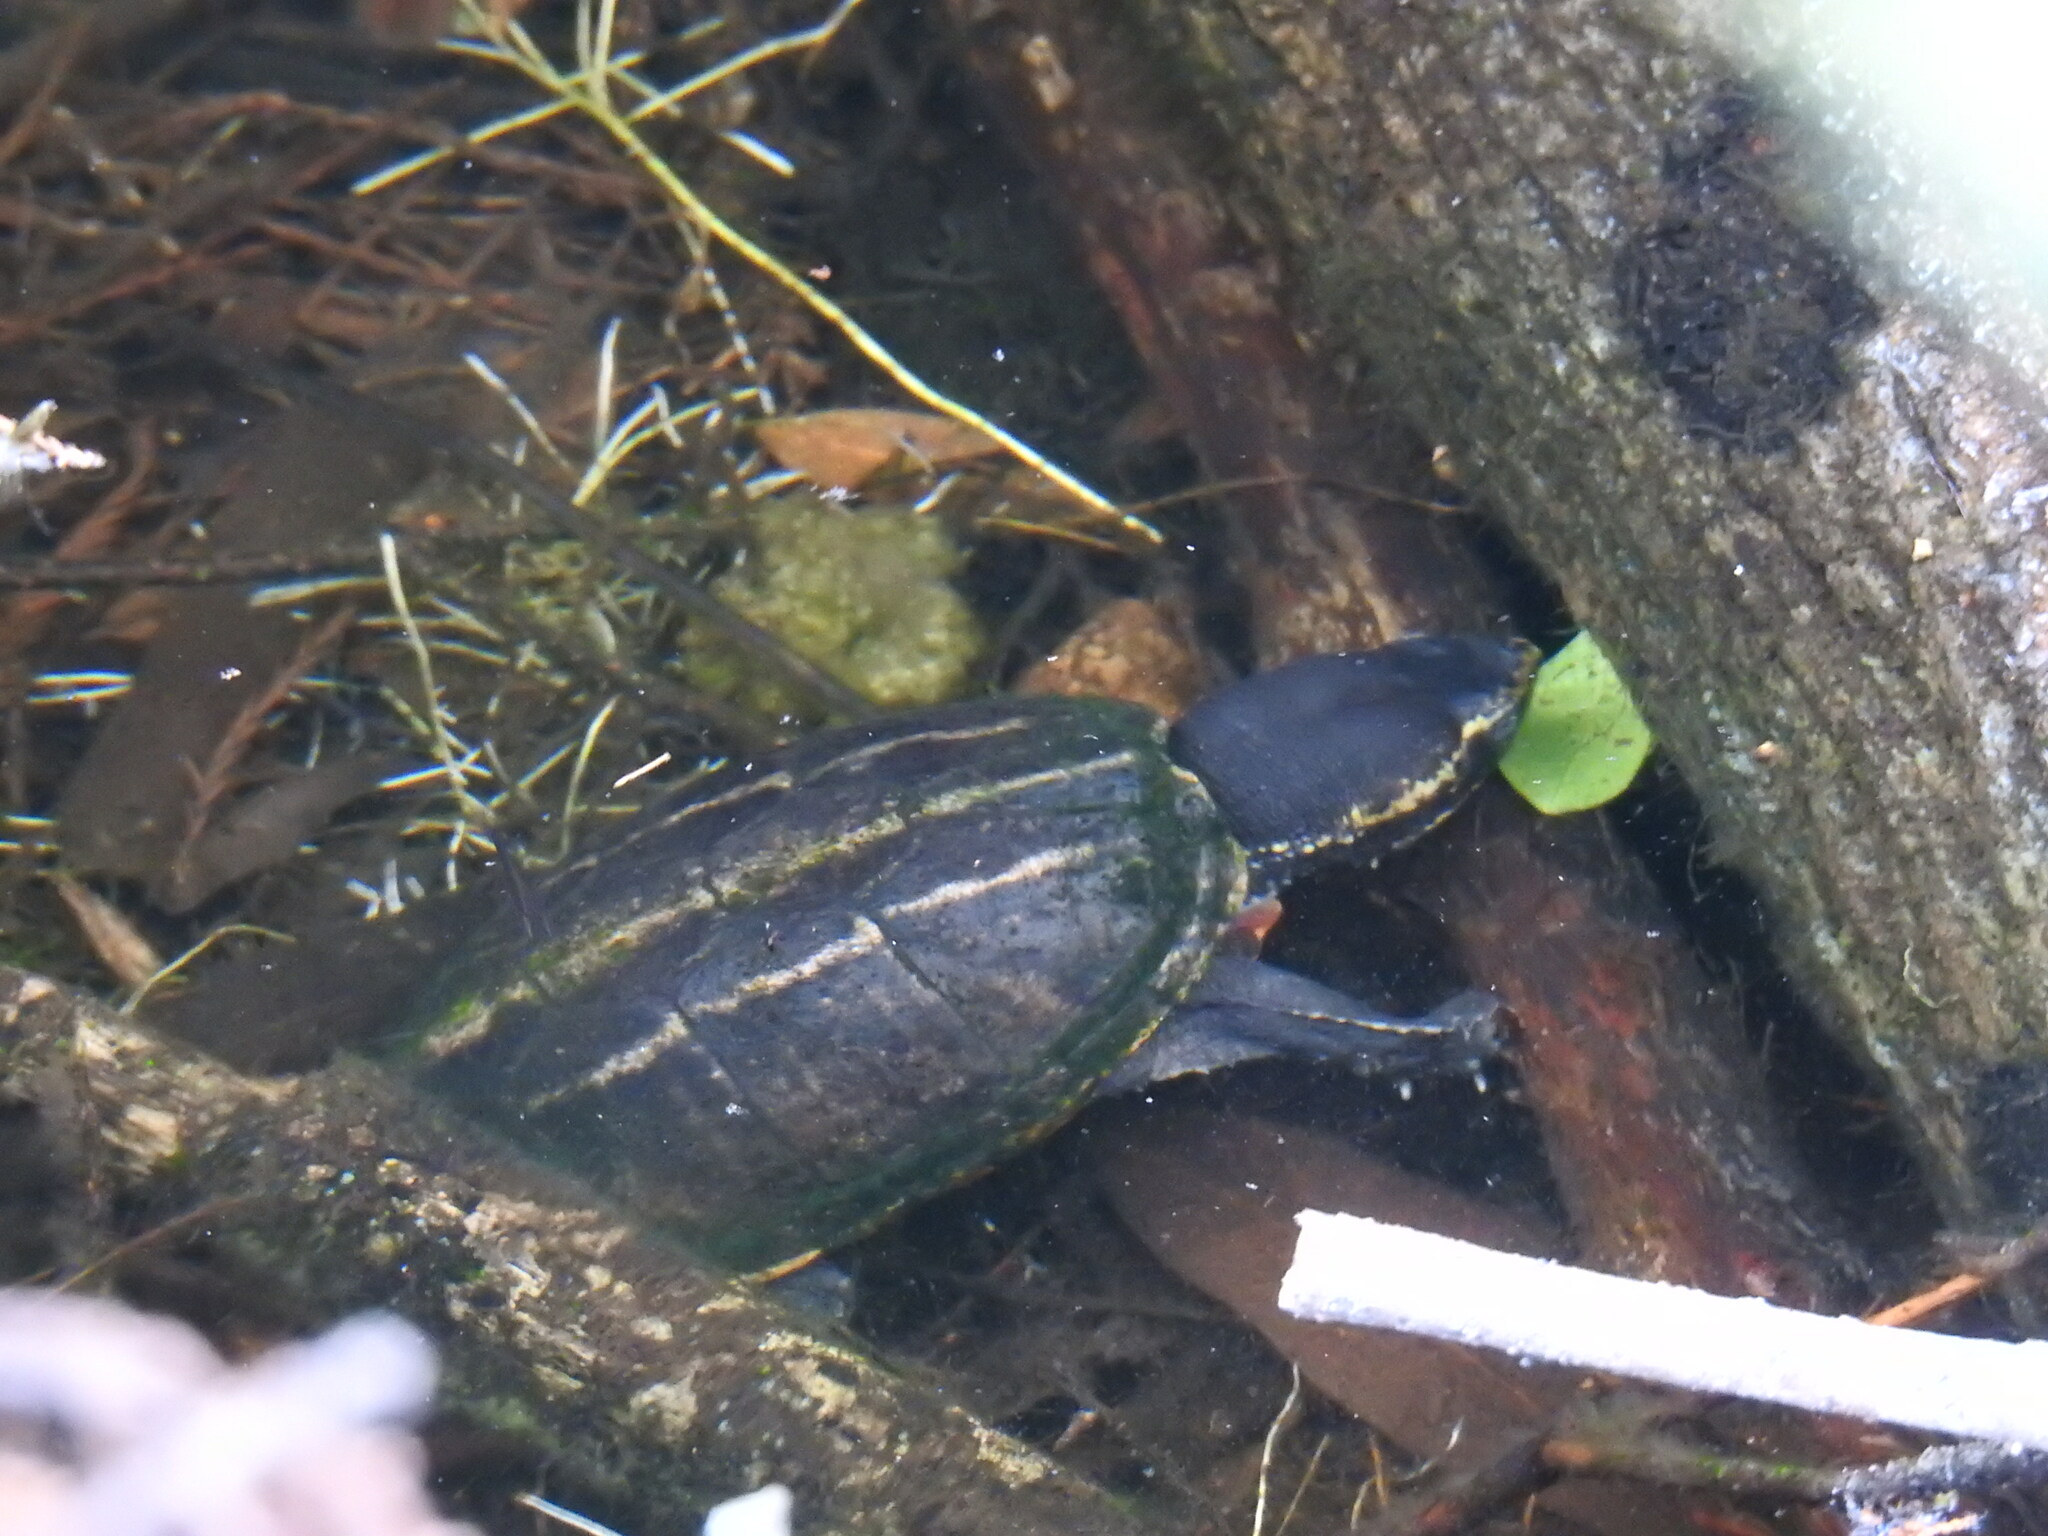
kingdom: Animalia
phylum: Chordata
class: Testudines
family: Kinosternidae
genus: Kinosternon
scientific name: Kinosternon baurii
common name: Striped mud turtle
